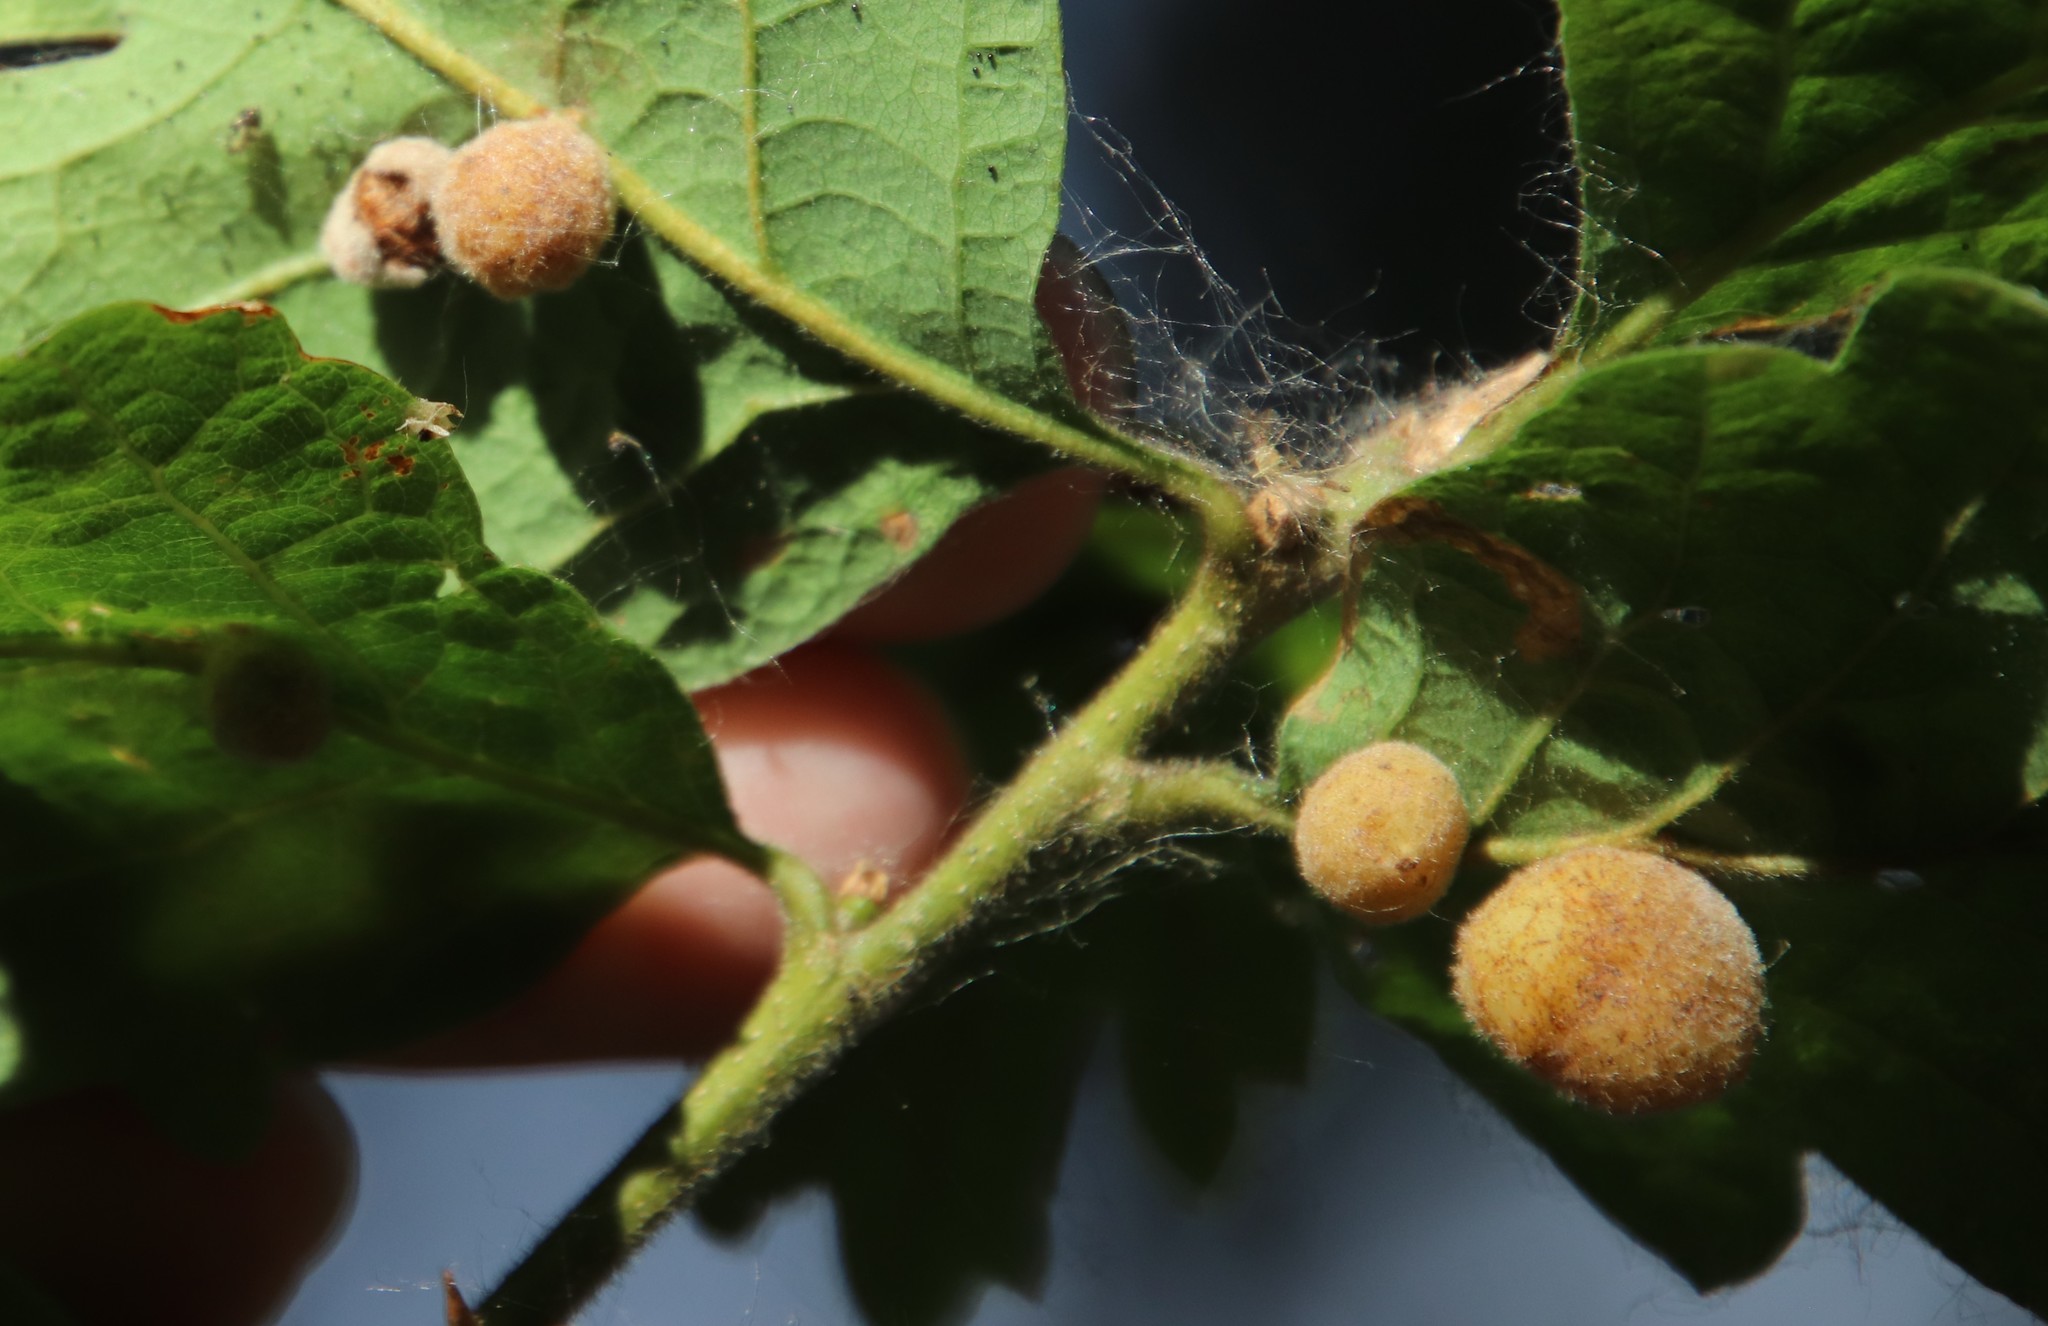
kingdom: Animalia
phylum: Arthropoda
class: Insecta
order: Hymenoptera
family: Cynipidae
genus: Cynips
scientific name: Cynips
